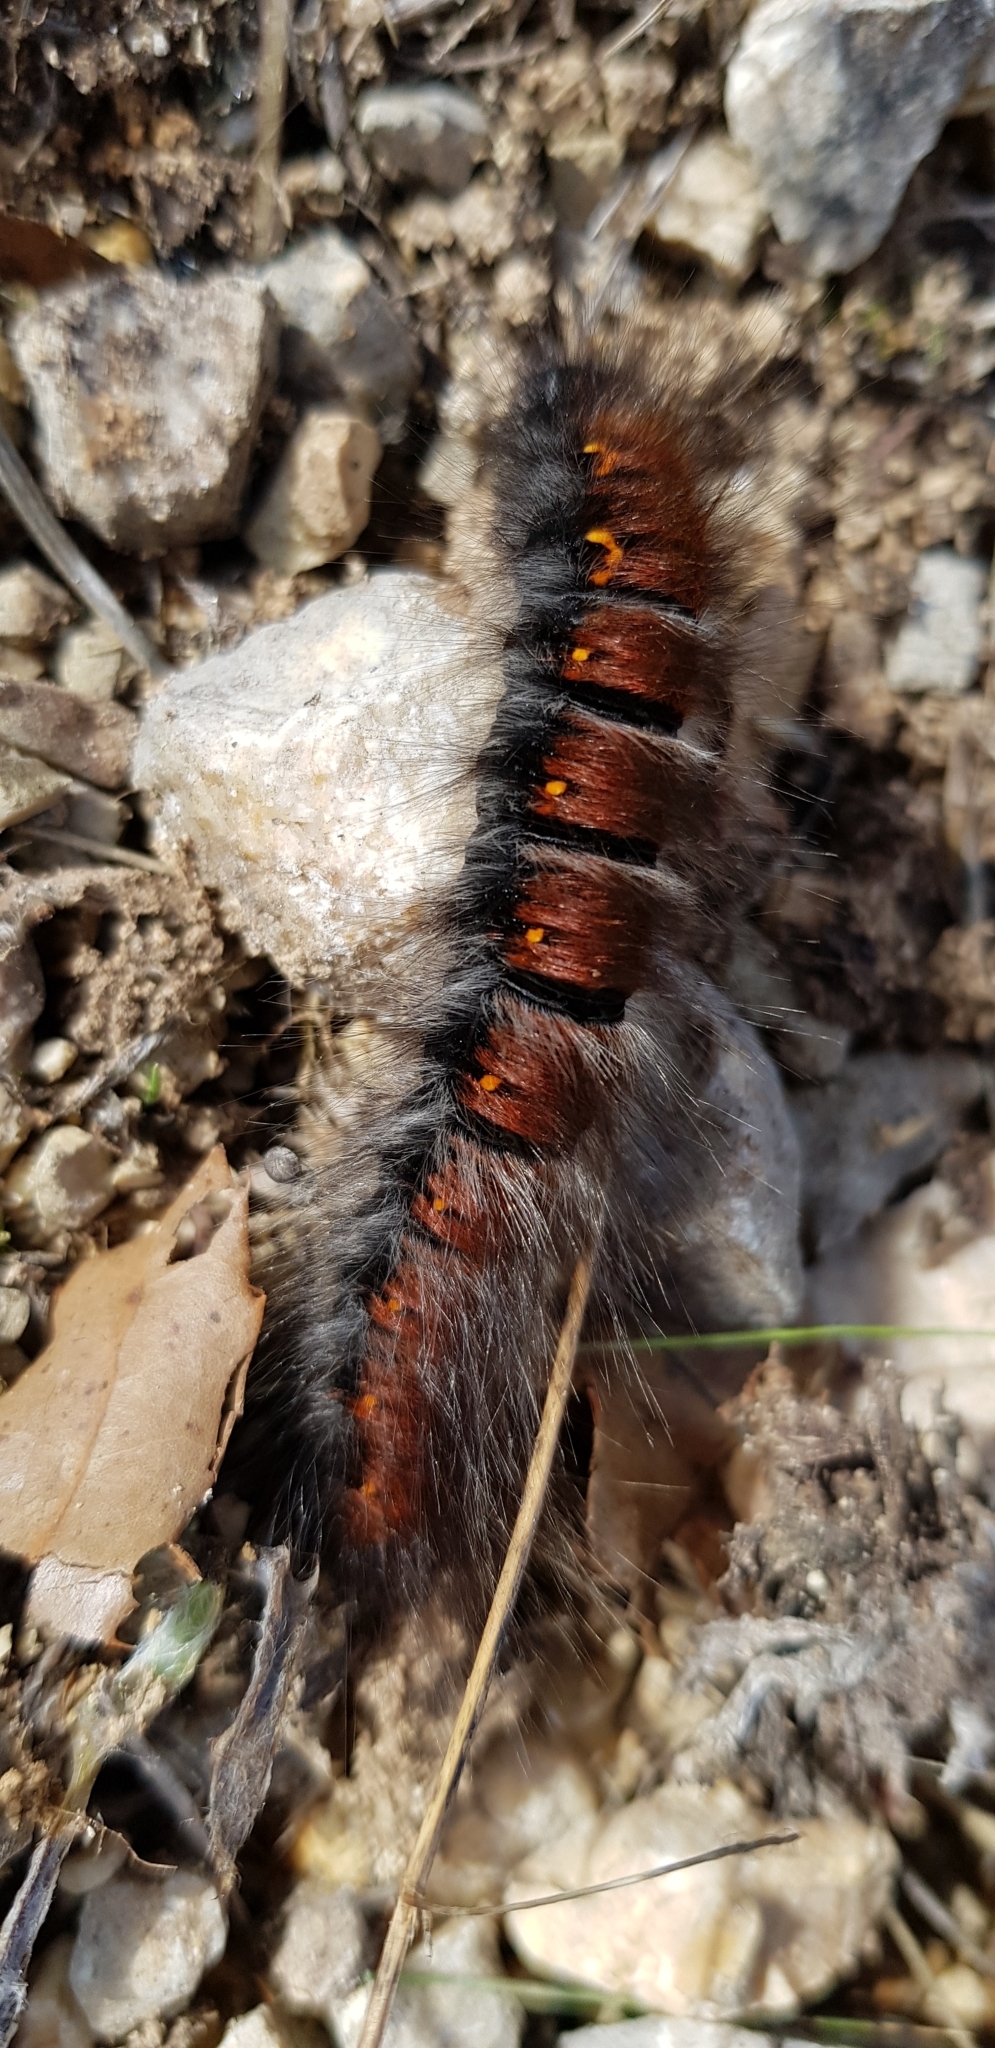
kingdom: Animalia
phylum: Arthropoda
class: Insecta
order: Lepidoptera
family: Lasiocampidae
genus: Macrothylacia
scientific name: Macrothylacia digramma
